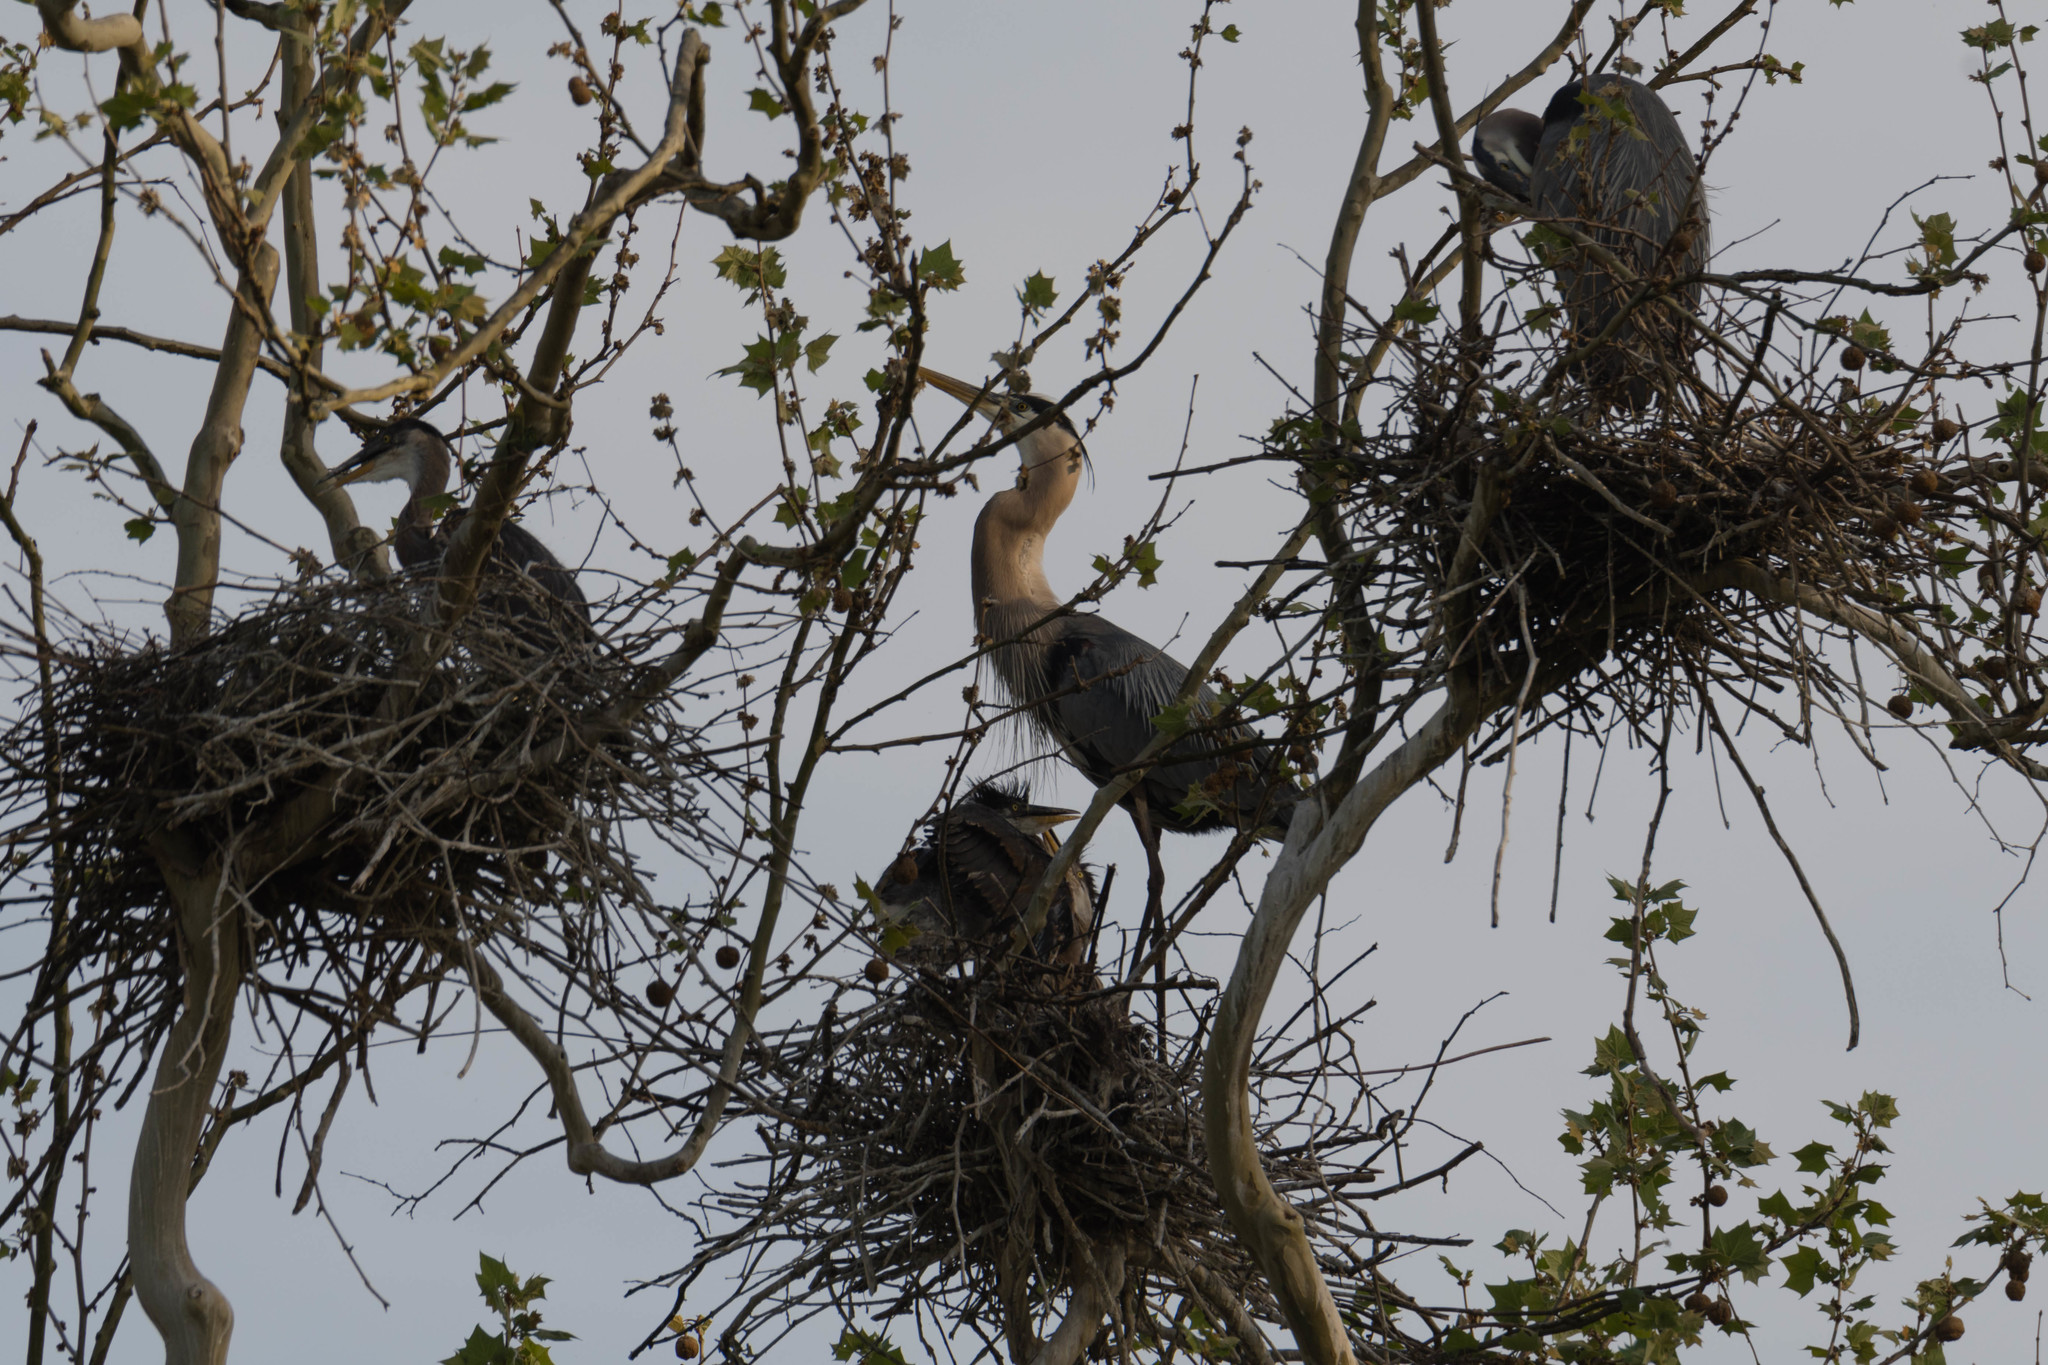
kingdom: Animalia
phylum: Chordata
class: Aves
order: Pelecaniformes
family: Ardeidae
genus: Ardea
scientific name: Ardea herodias
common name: Great blue heron
